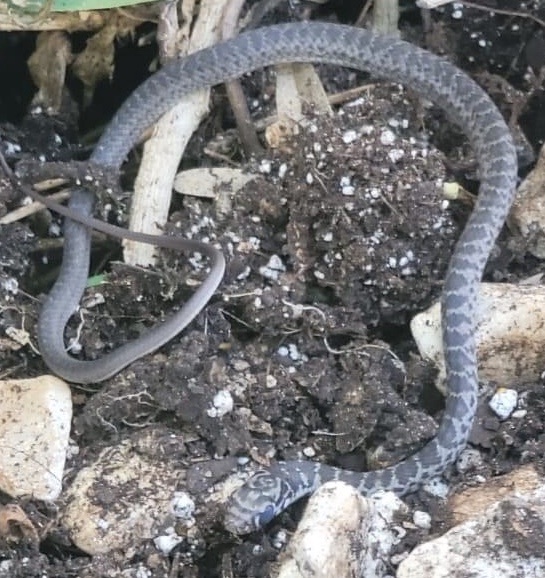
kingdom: Animalia
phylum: Chordata
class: Squamata
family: Colubridae
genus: Coluber
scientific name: Coluber constrictor
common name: Eastern racer
